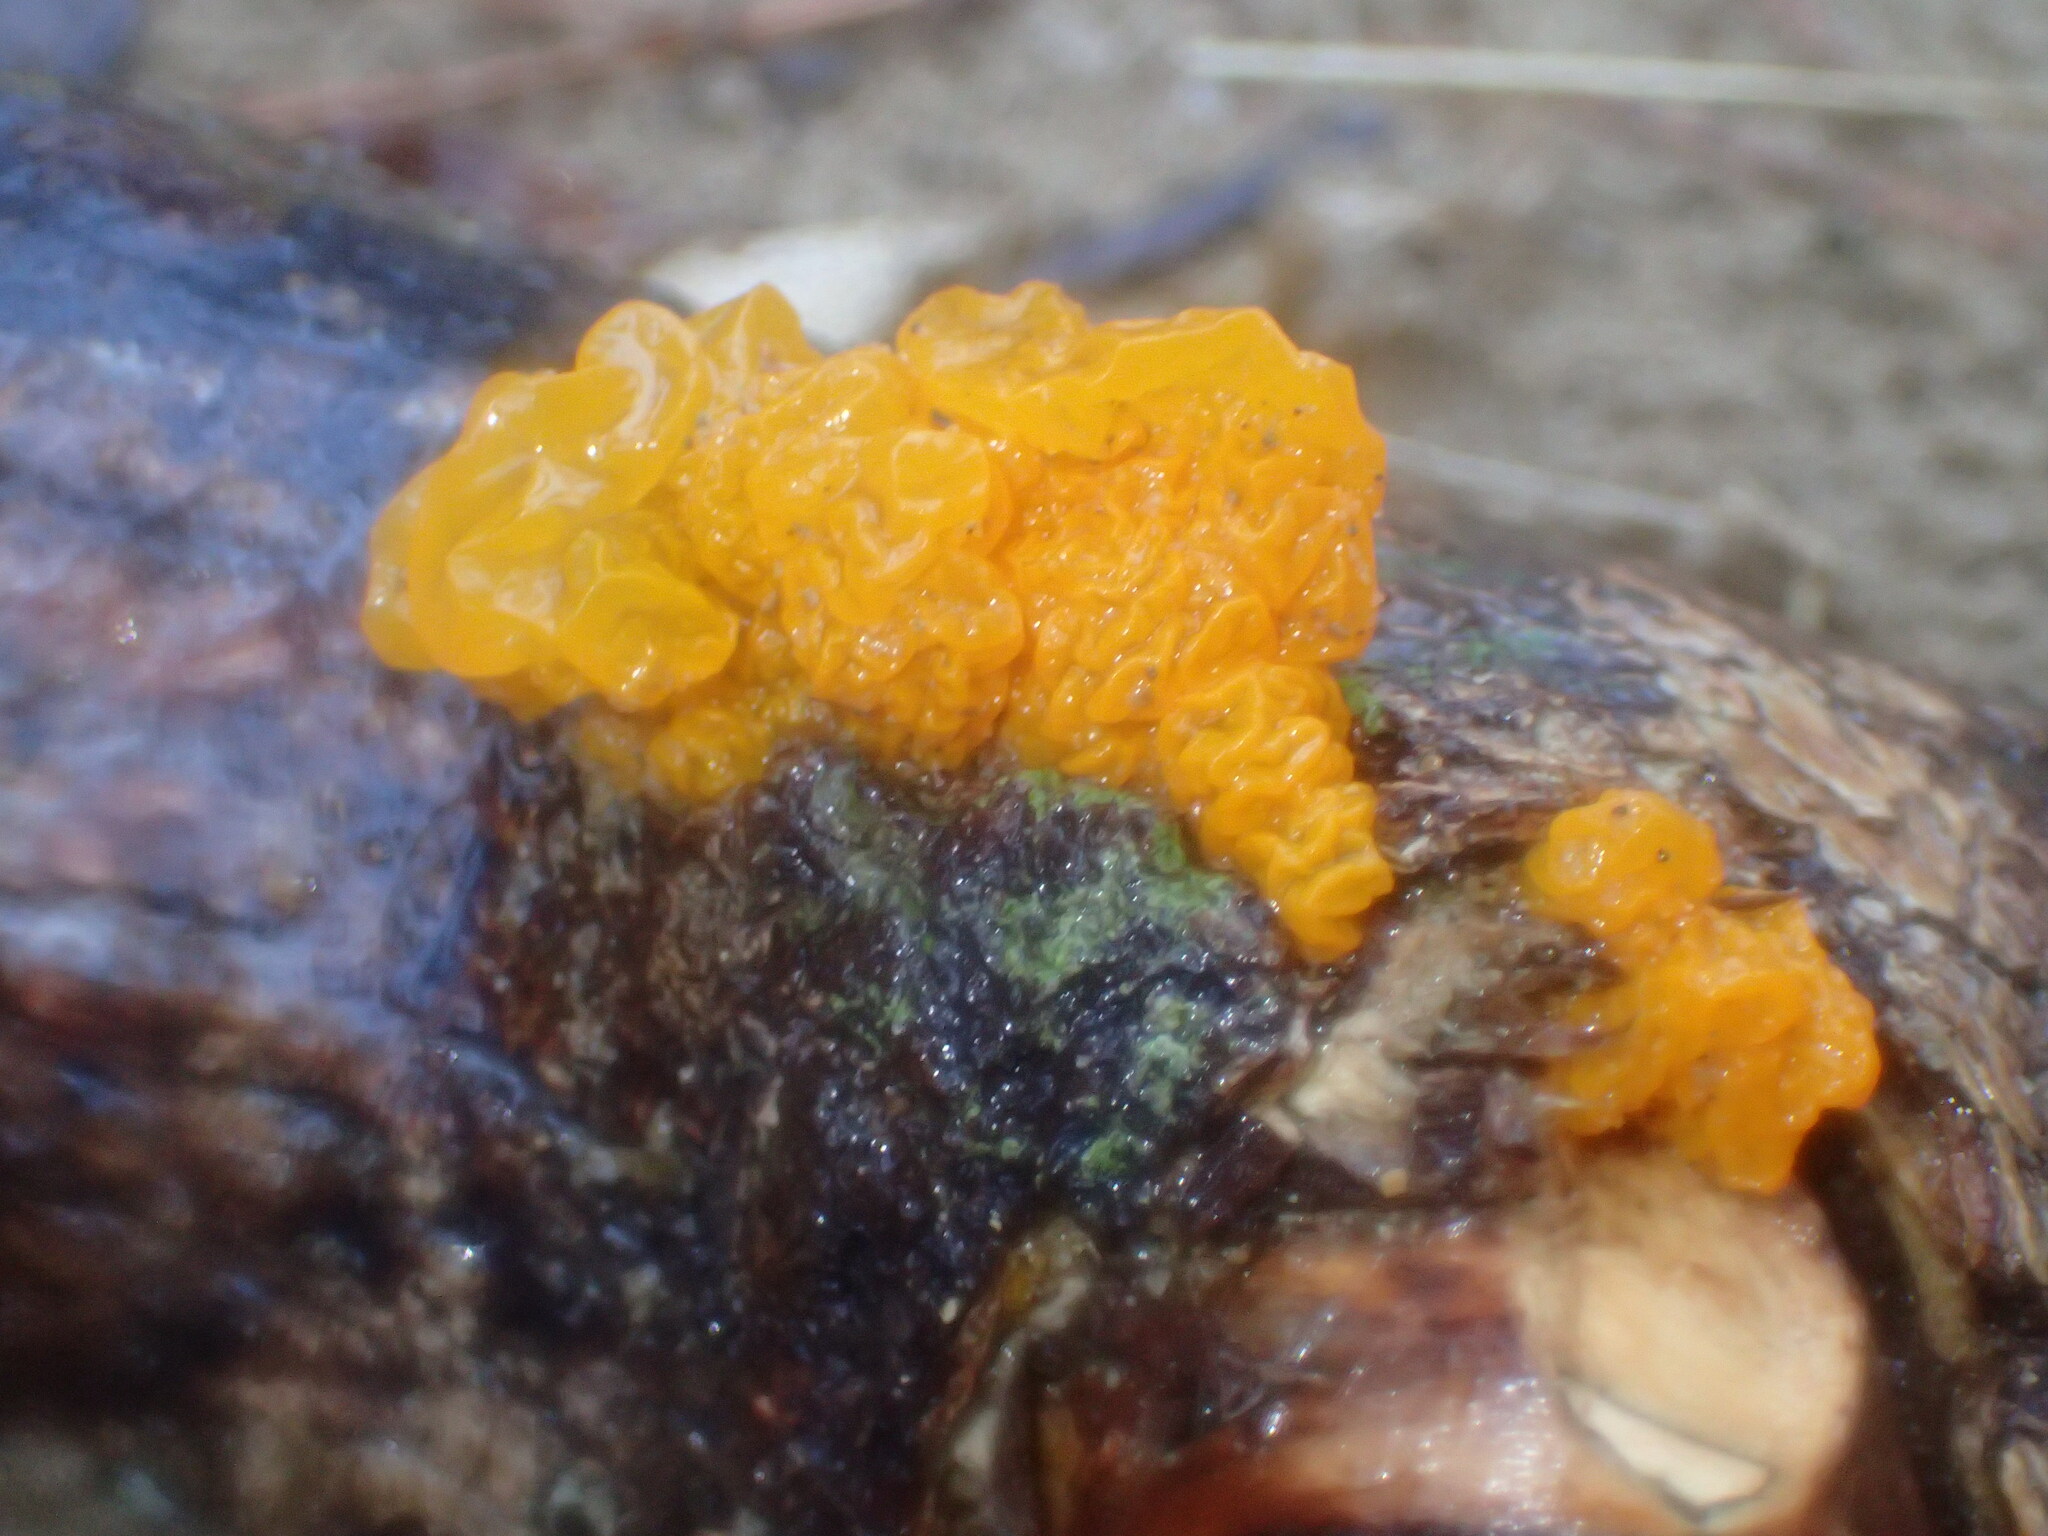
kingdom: Fungi
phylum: Basidiomycota
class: Tremellomycetes
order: Tremellales
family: Tremellaceae
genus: Tremella
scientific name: Tremella mesenterica
